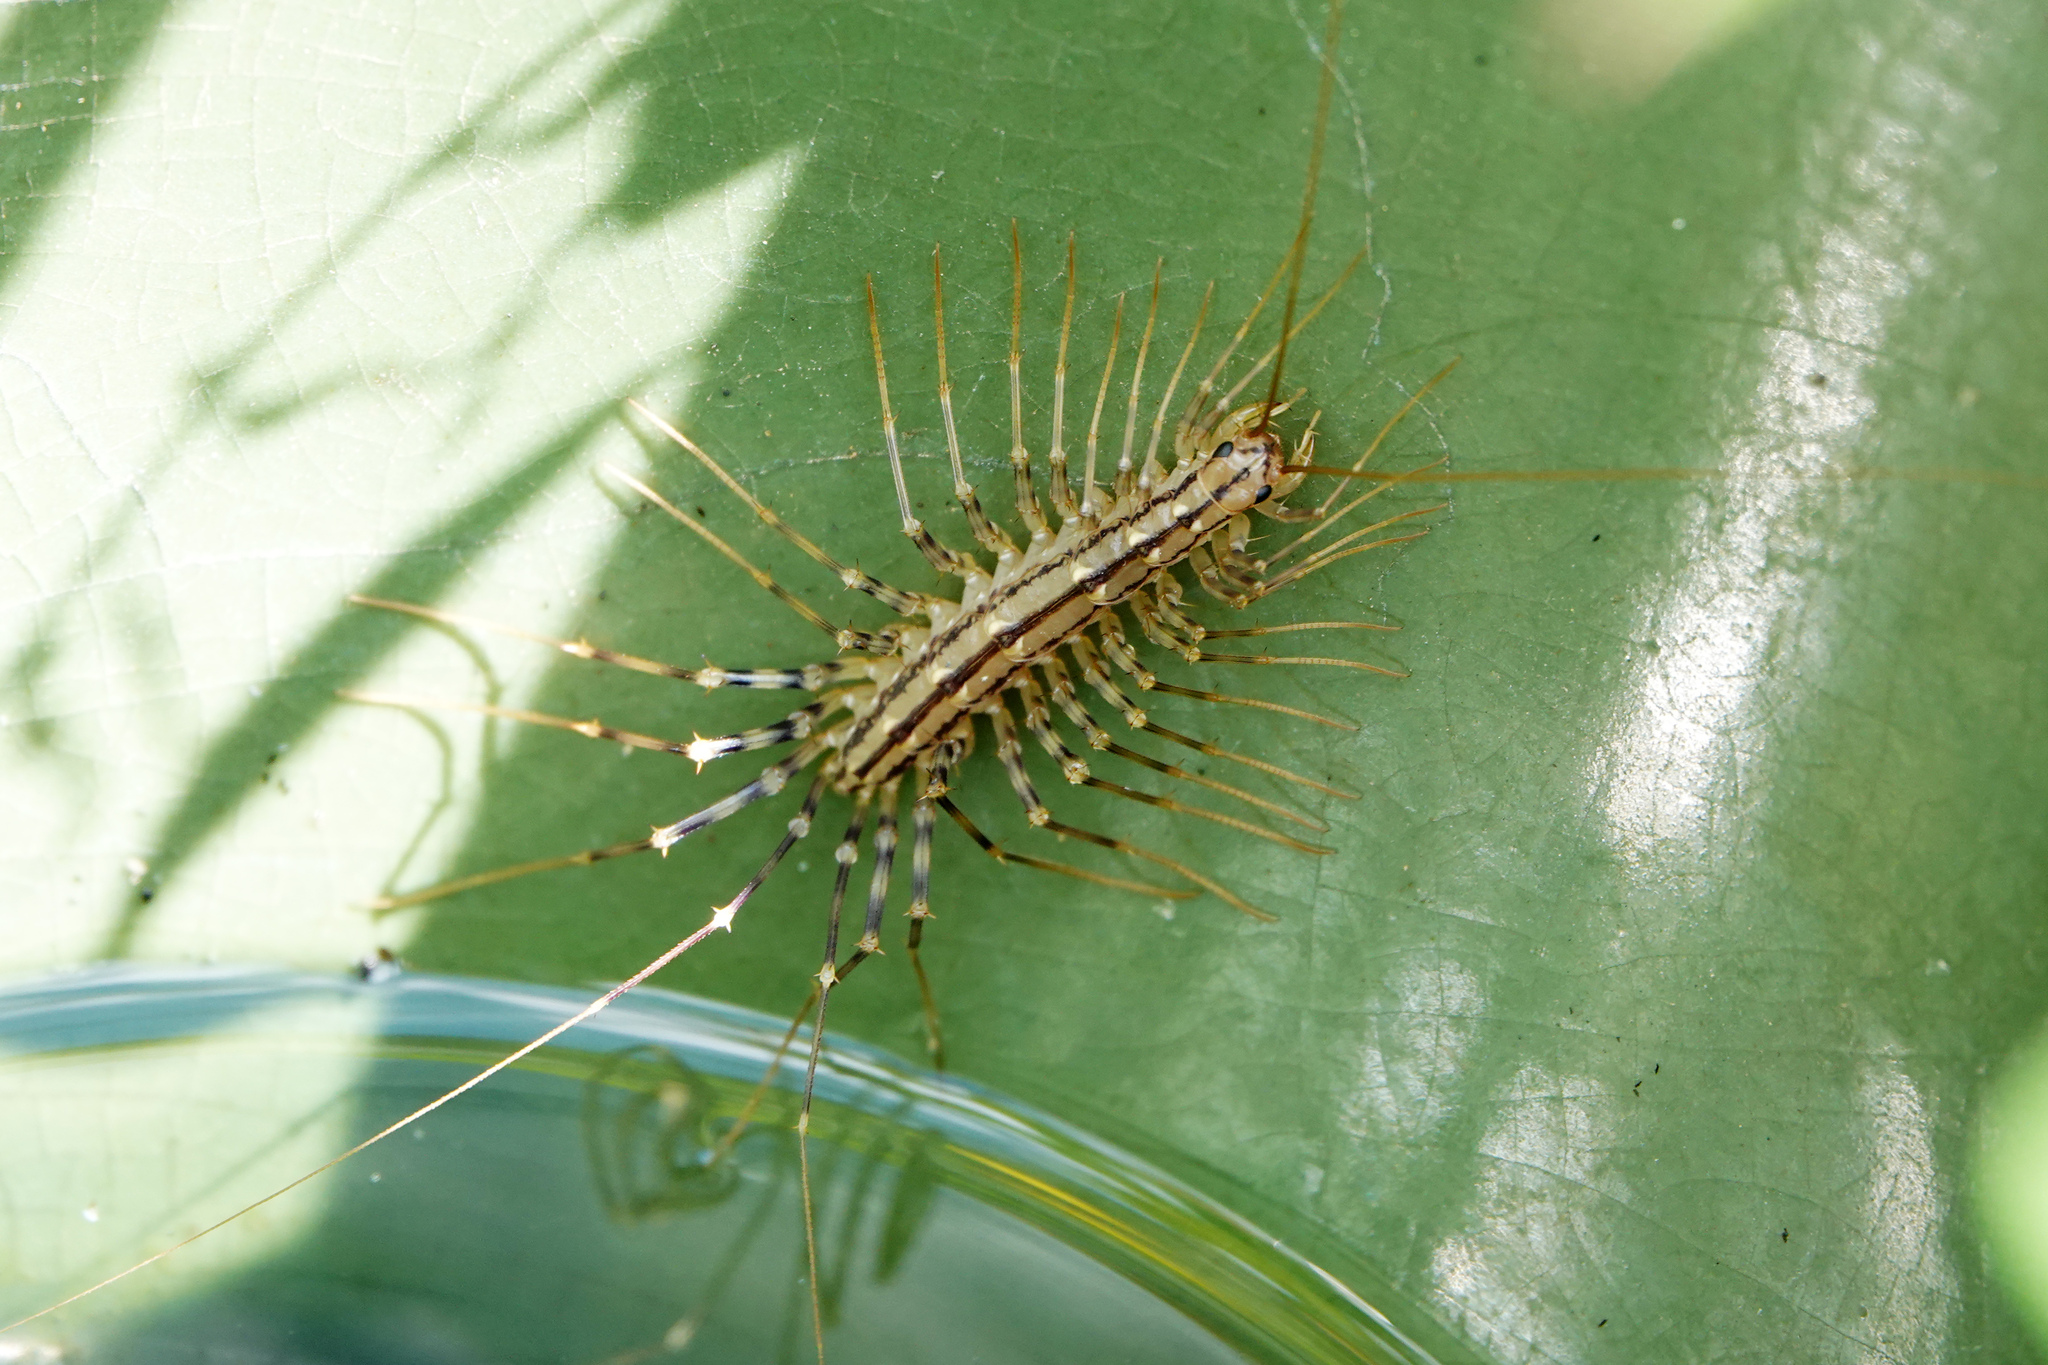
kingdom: Animalia
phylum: Arthropoda
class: Chilopoda
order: Scutigeromorpha
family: Scutigeridae
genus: Scutigera
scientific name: Scutigera coleoptrata
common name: House centipede
